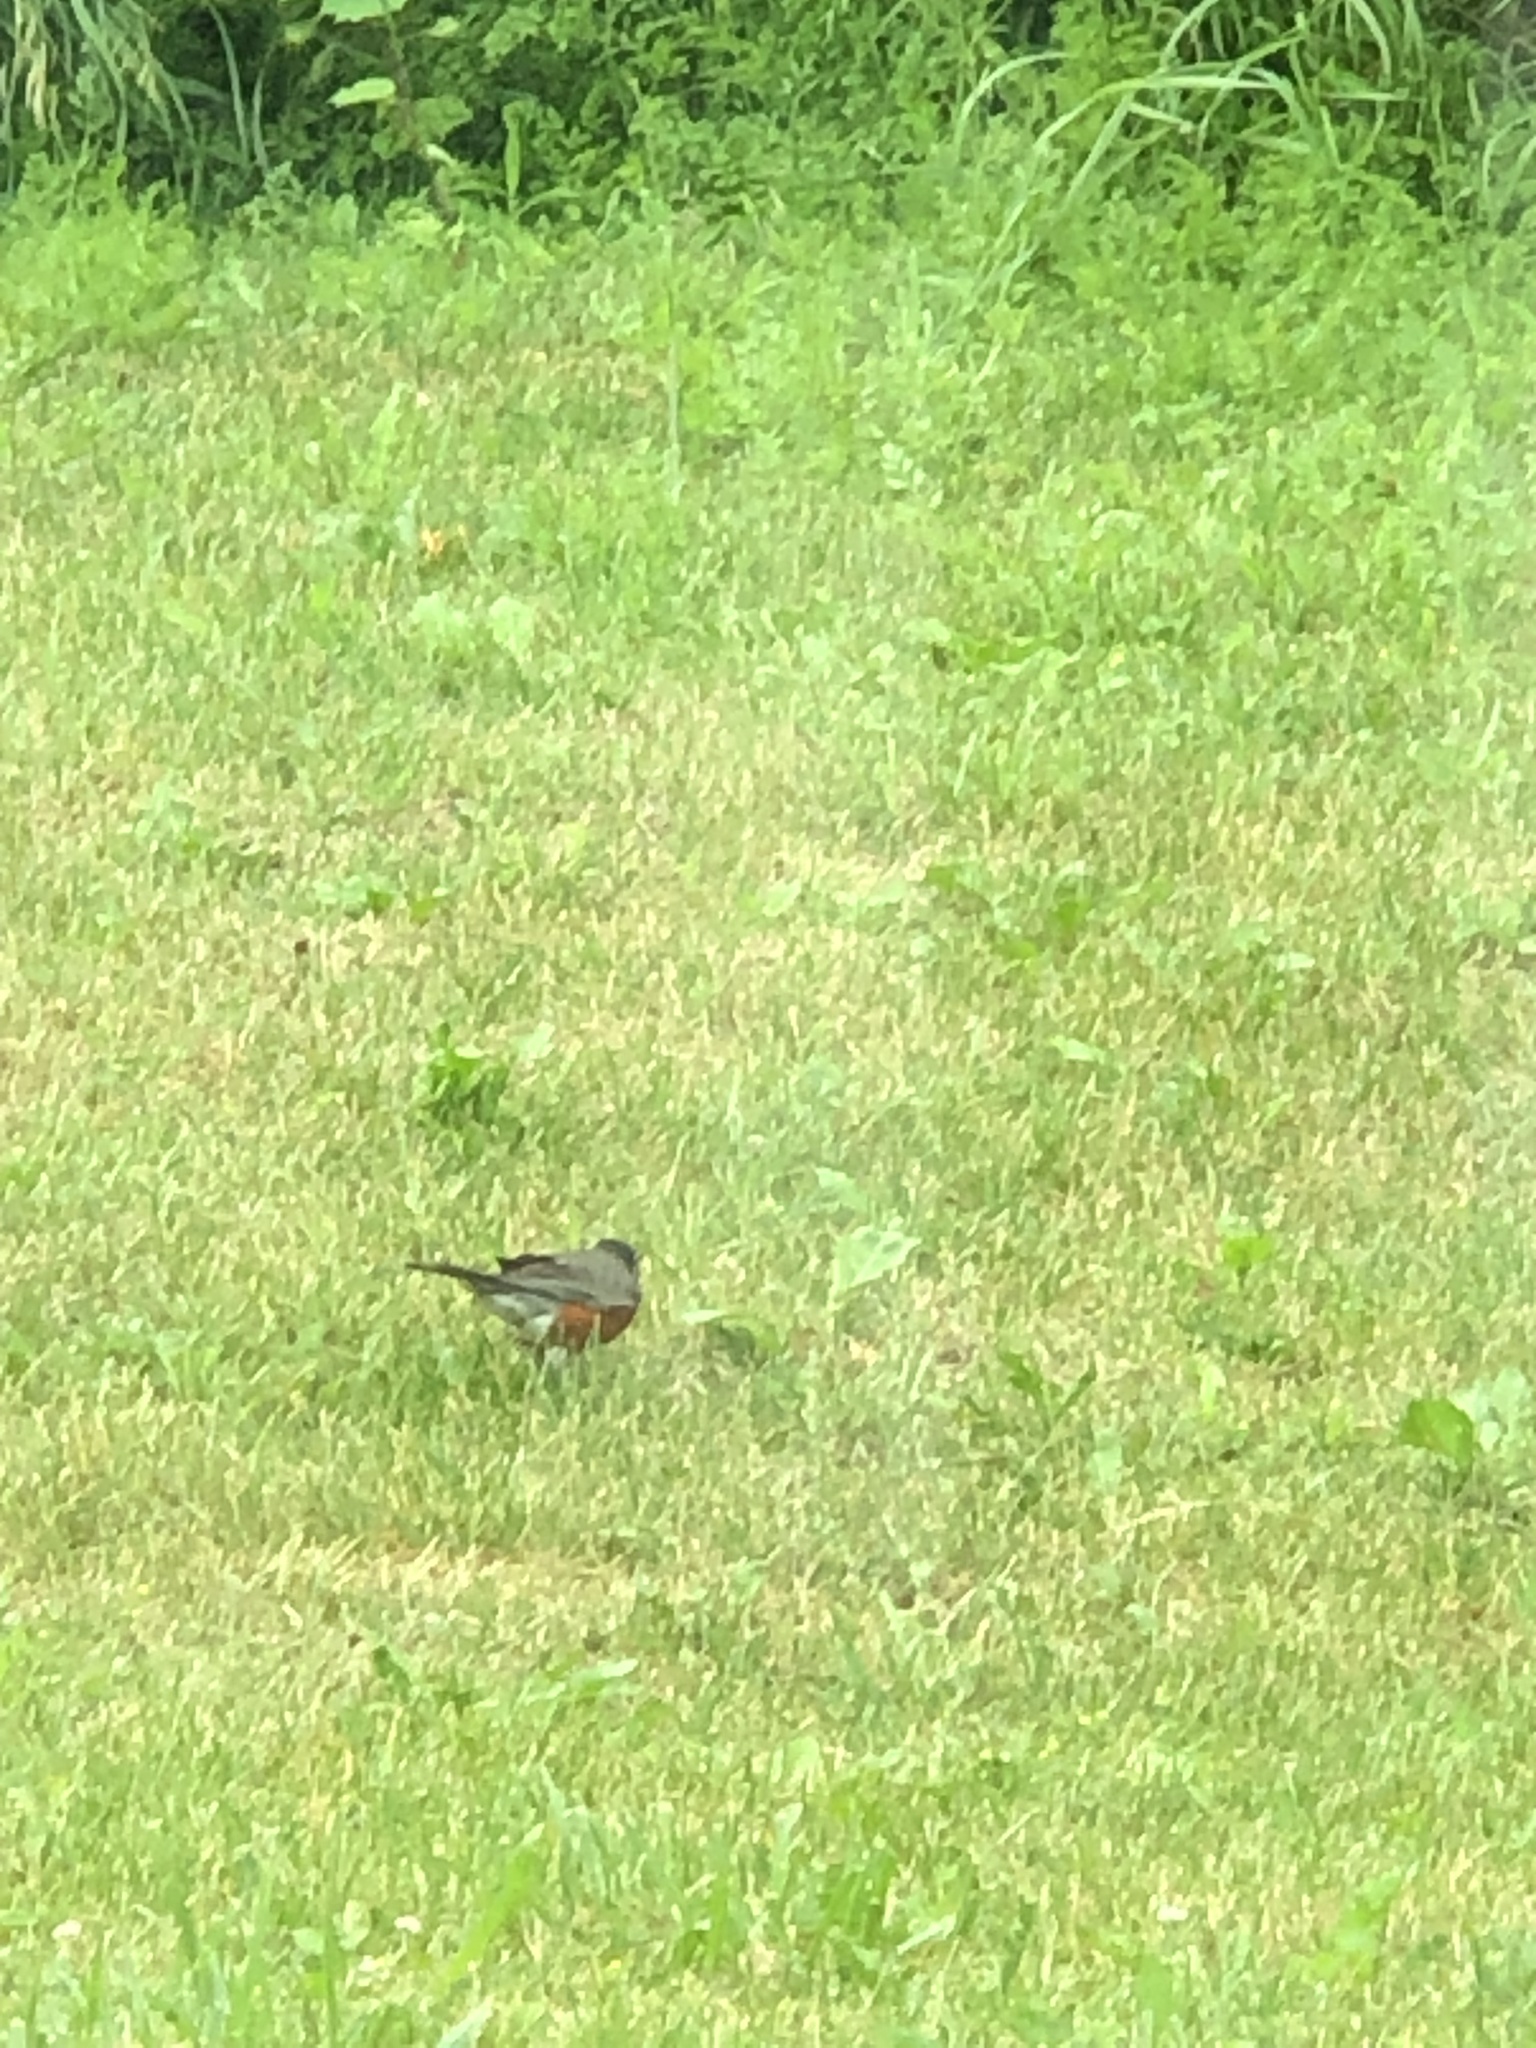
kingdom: Animalia
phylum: Chordata
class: Aves
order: Passeriformes
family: Turdidae
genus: Turdus
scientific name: Turdus migratorius
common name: American robin
